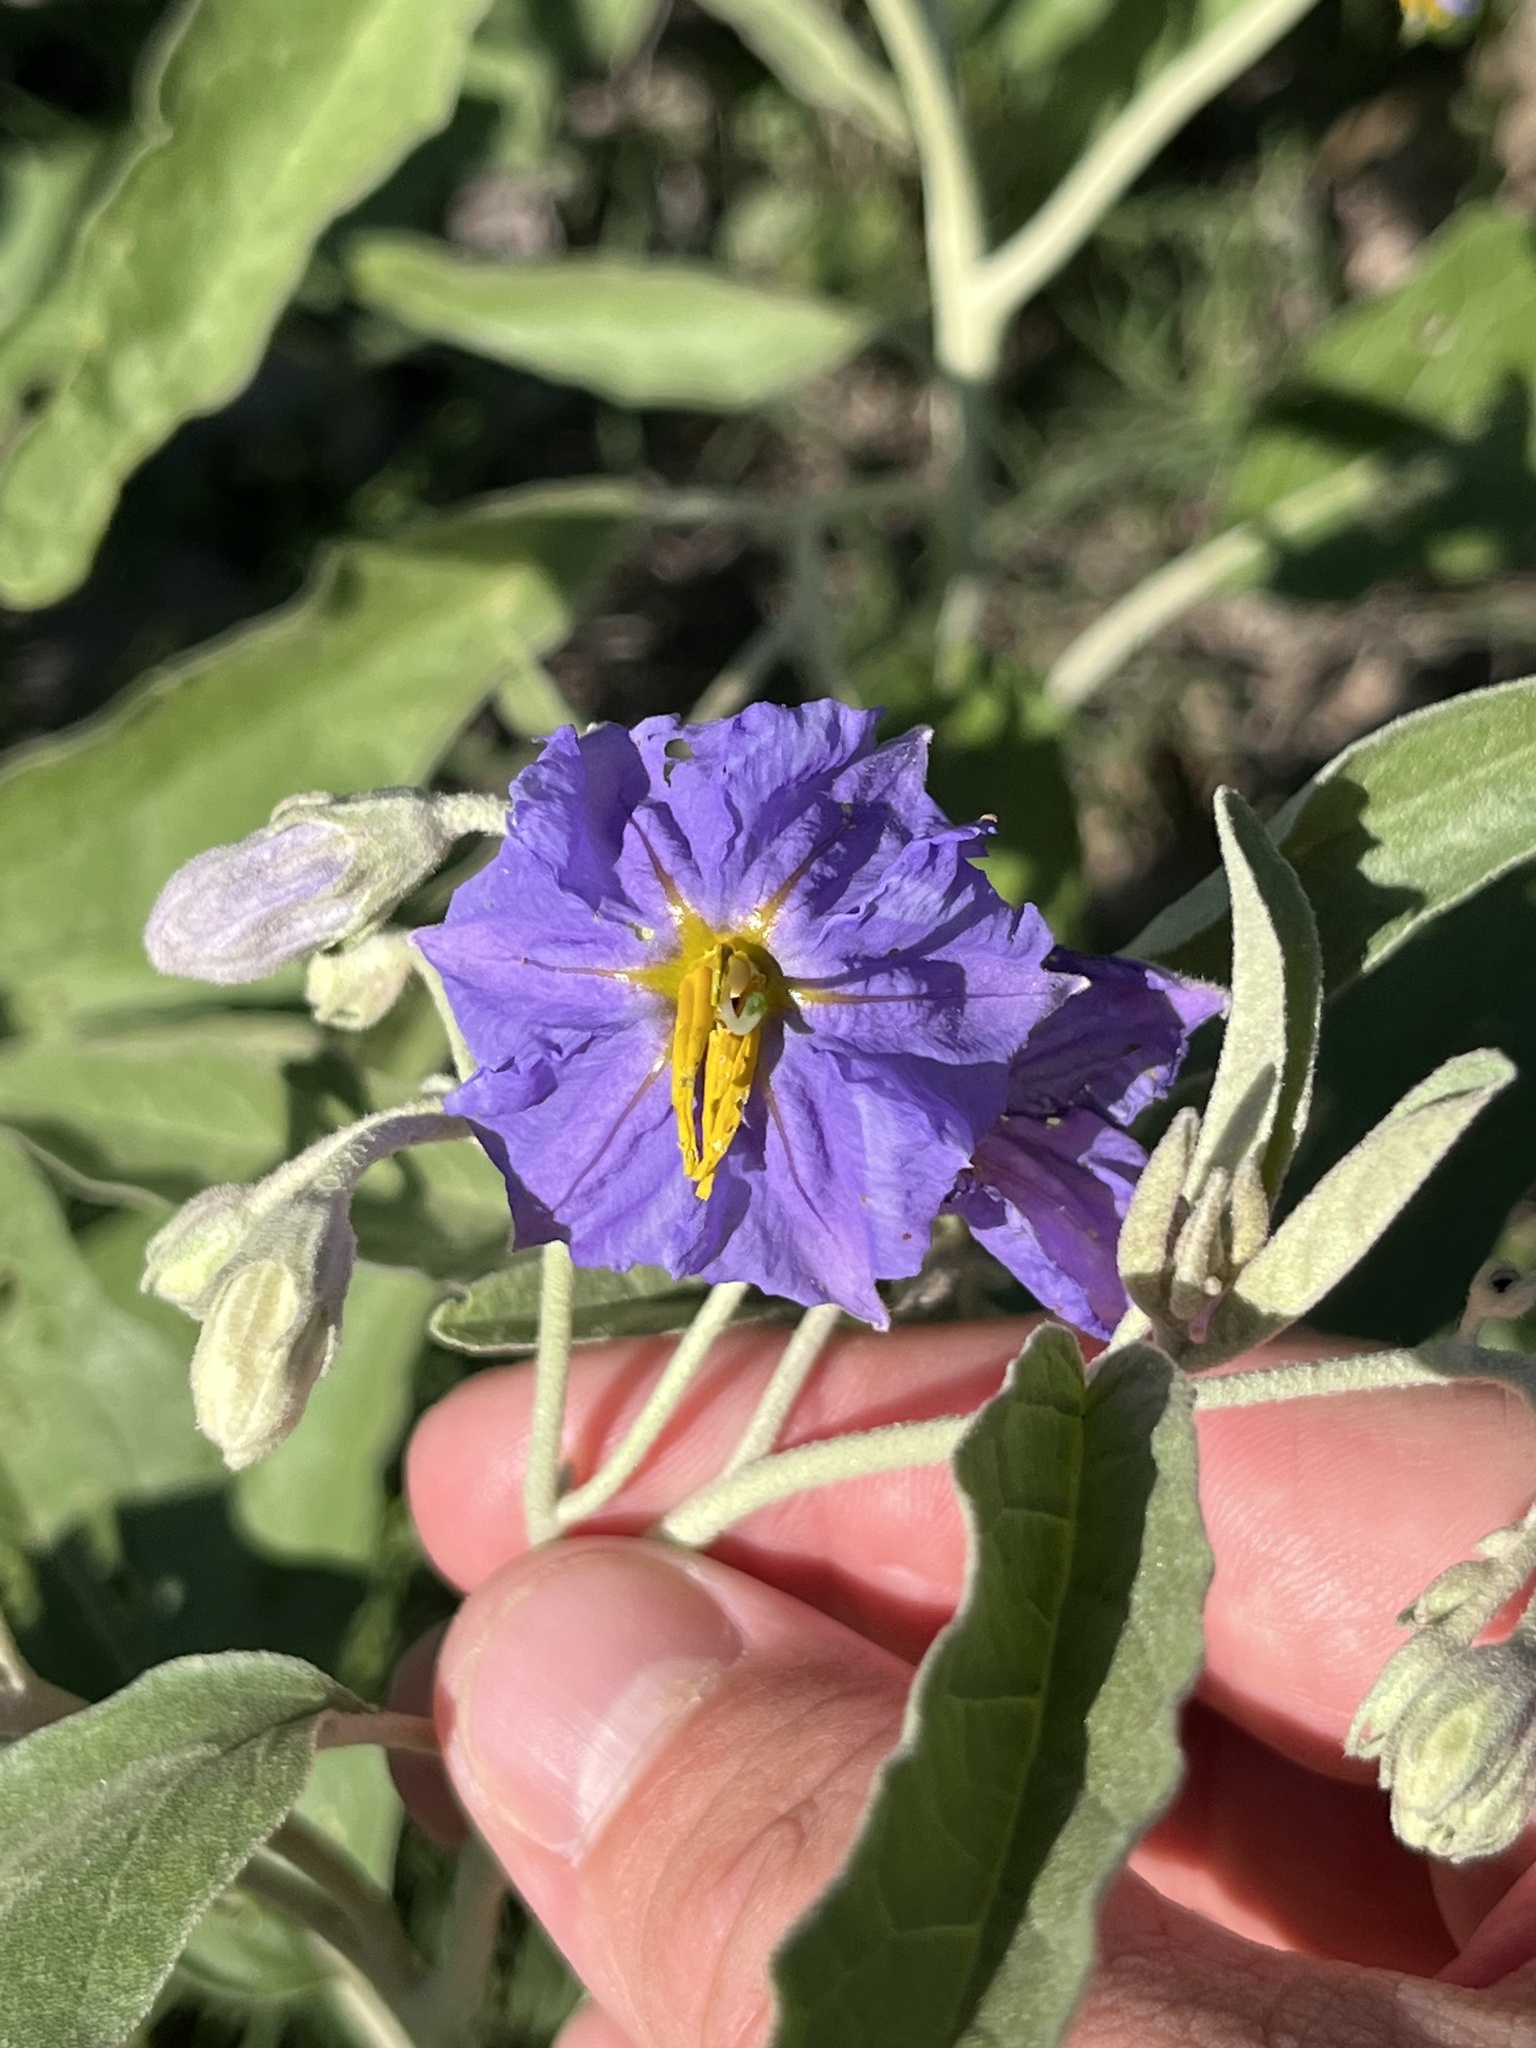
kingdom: Plantae
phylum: Tracheophyta
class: Magnoliopsida
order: Solanales
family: Solanaceae
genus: Solanum
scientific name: Solanum elaeagnifolium
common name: Silverleaf nightshade
